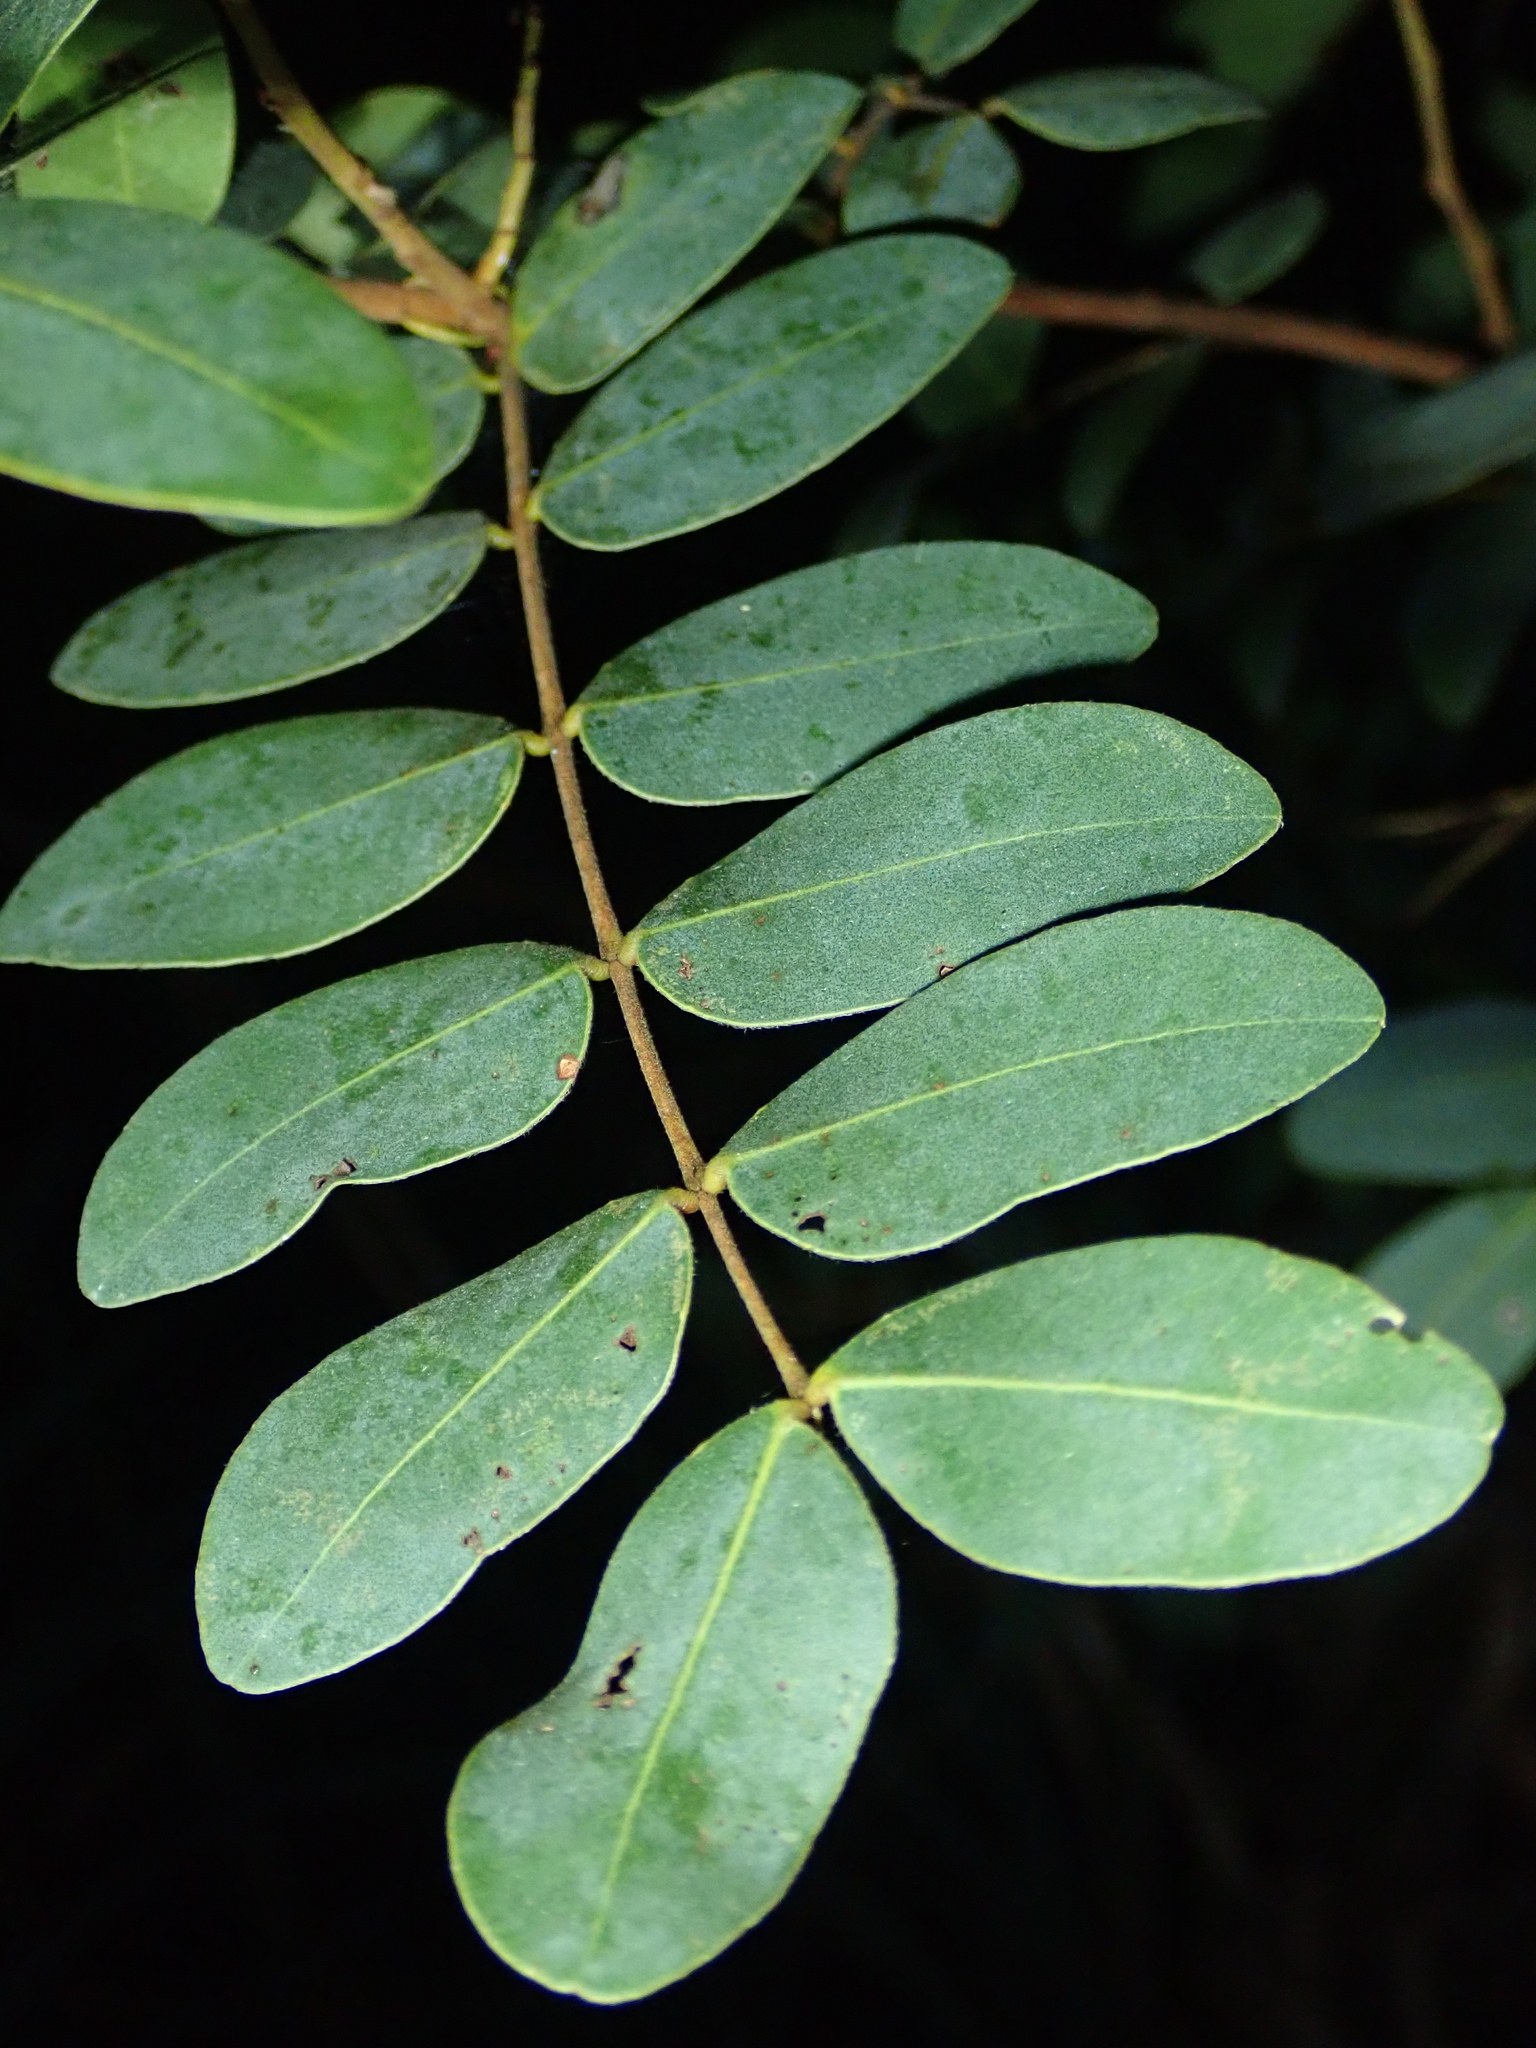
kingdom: Plantae
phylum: Tracheophyta
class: Magnoliopsida
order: Fabales
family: Fabaceae
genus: Copaifera
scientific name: Copaifera oblongifolia
